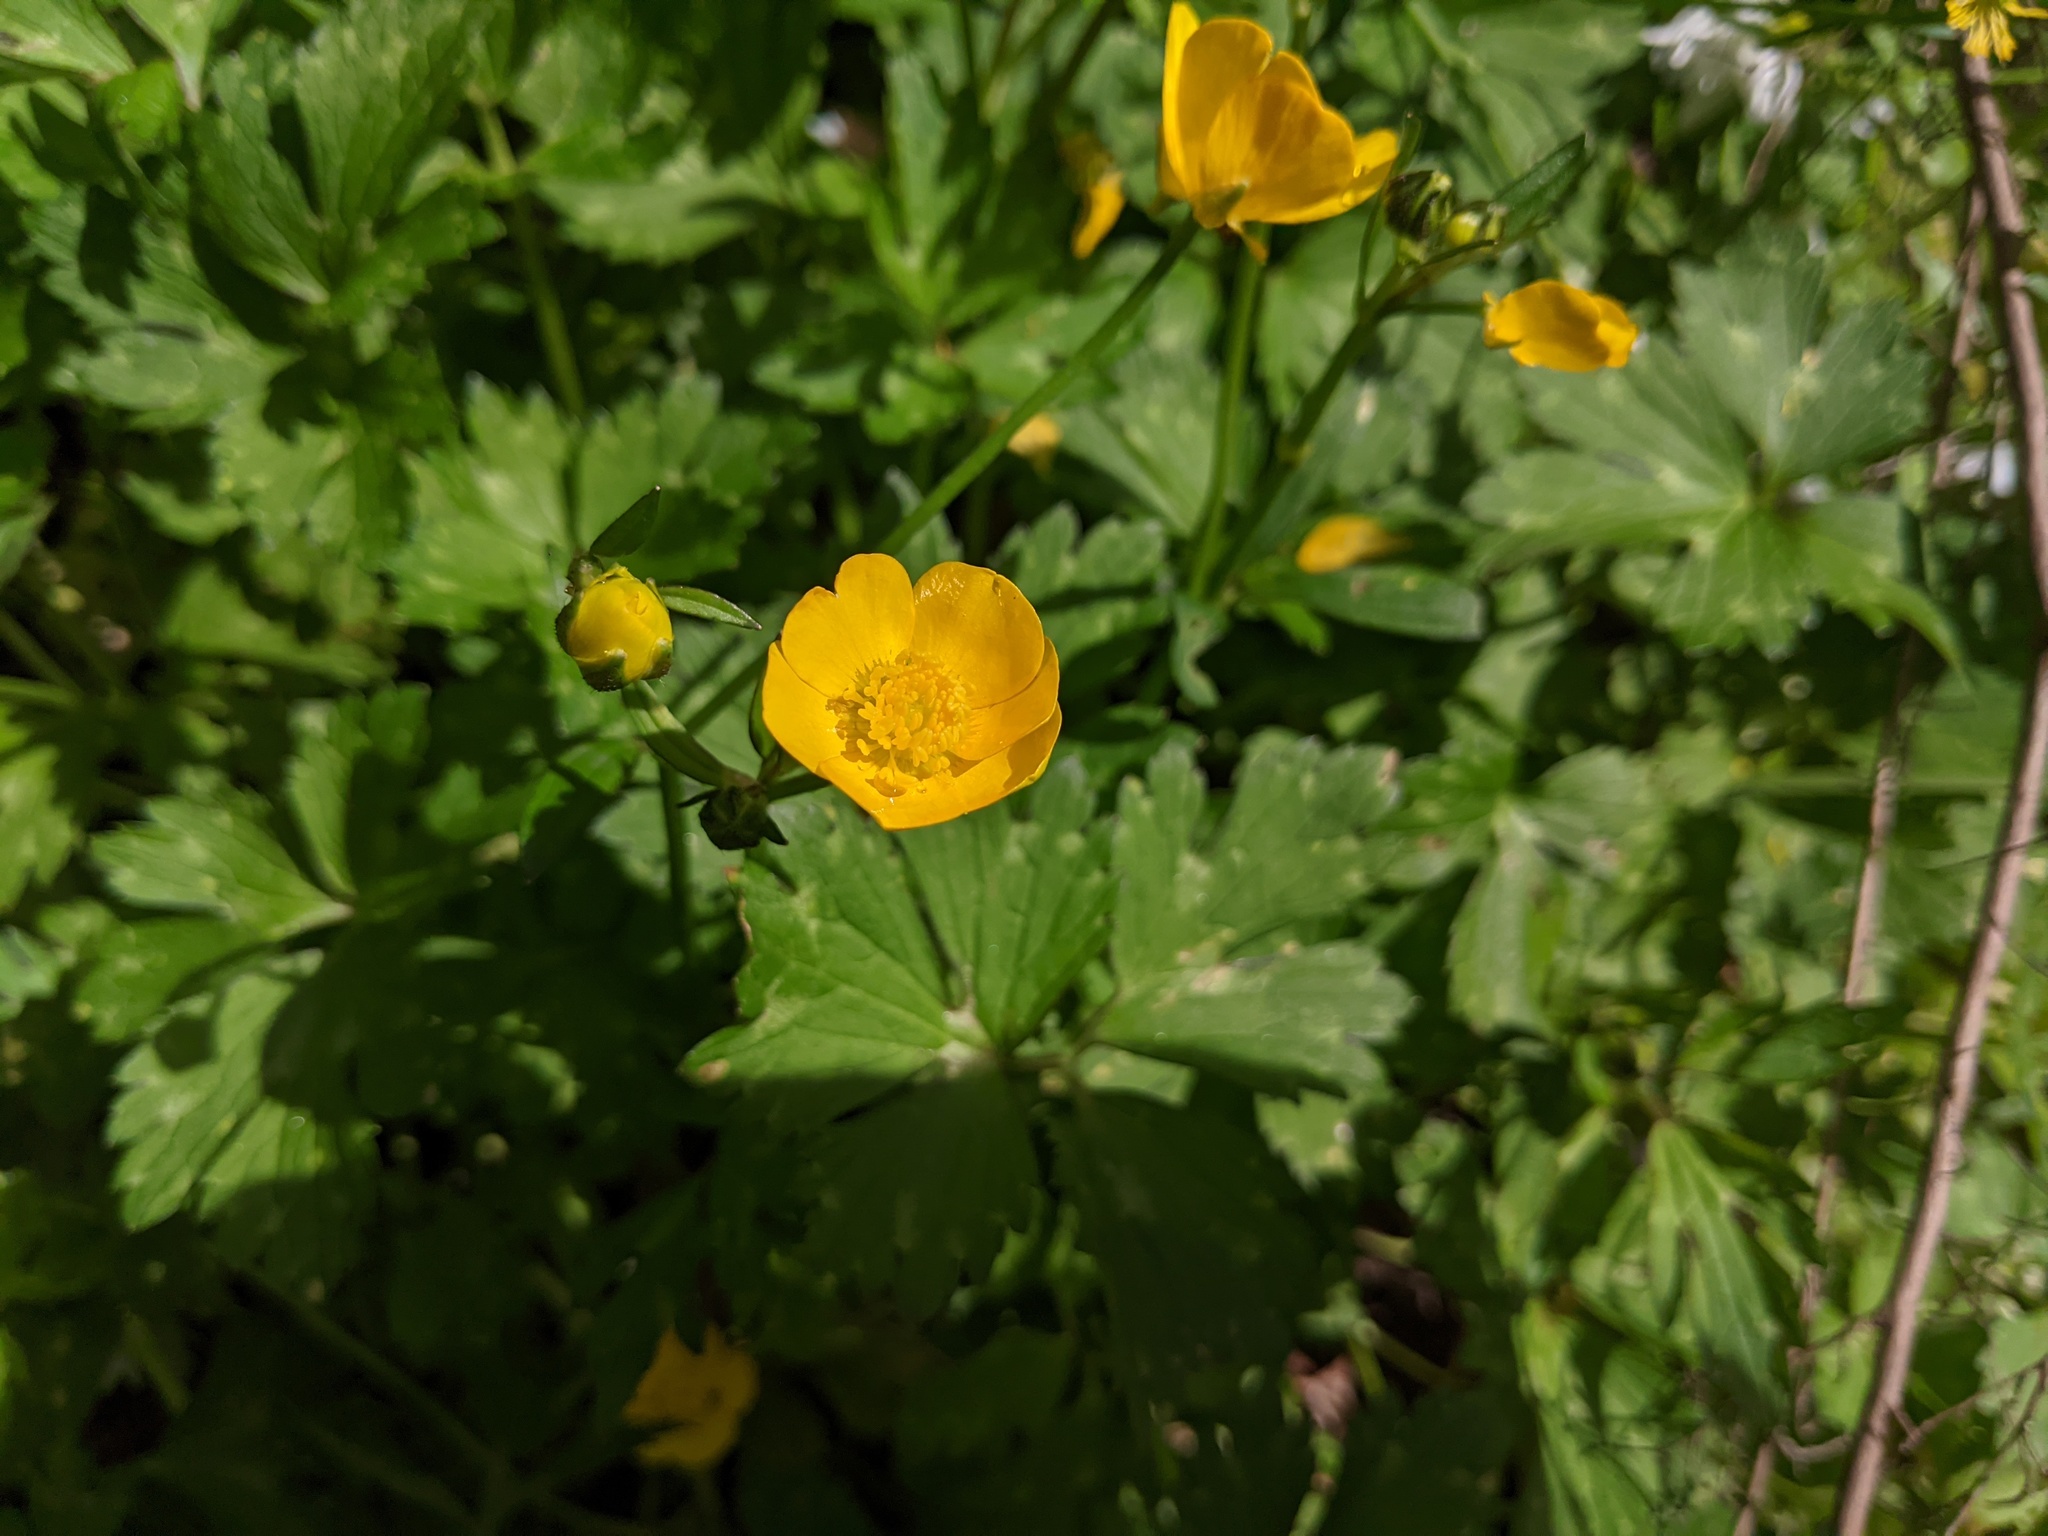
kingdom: Plantae
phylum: Tracheophyta
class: Magnoliopsida
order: Ranunculales
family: Ranunculaceae
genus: Ranunculus
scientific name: Ranunculus repens
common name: Creeping buttercup
